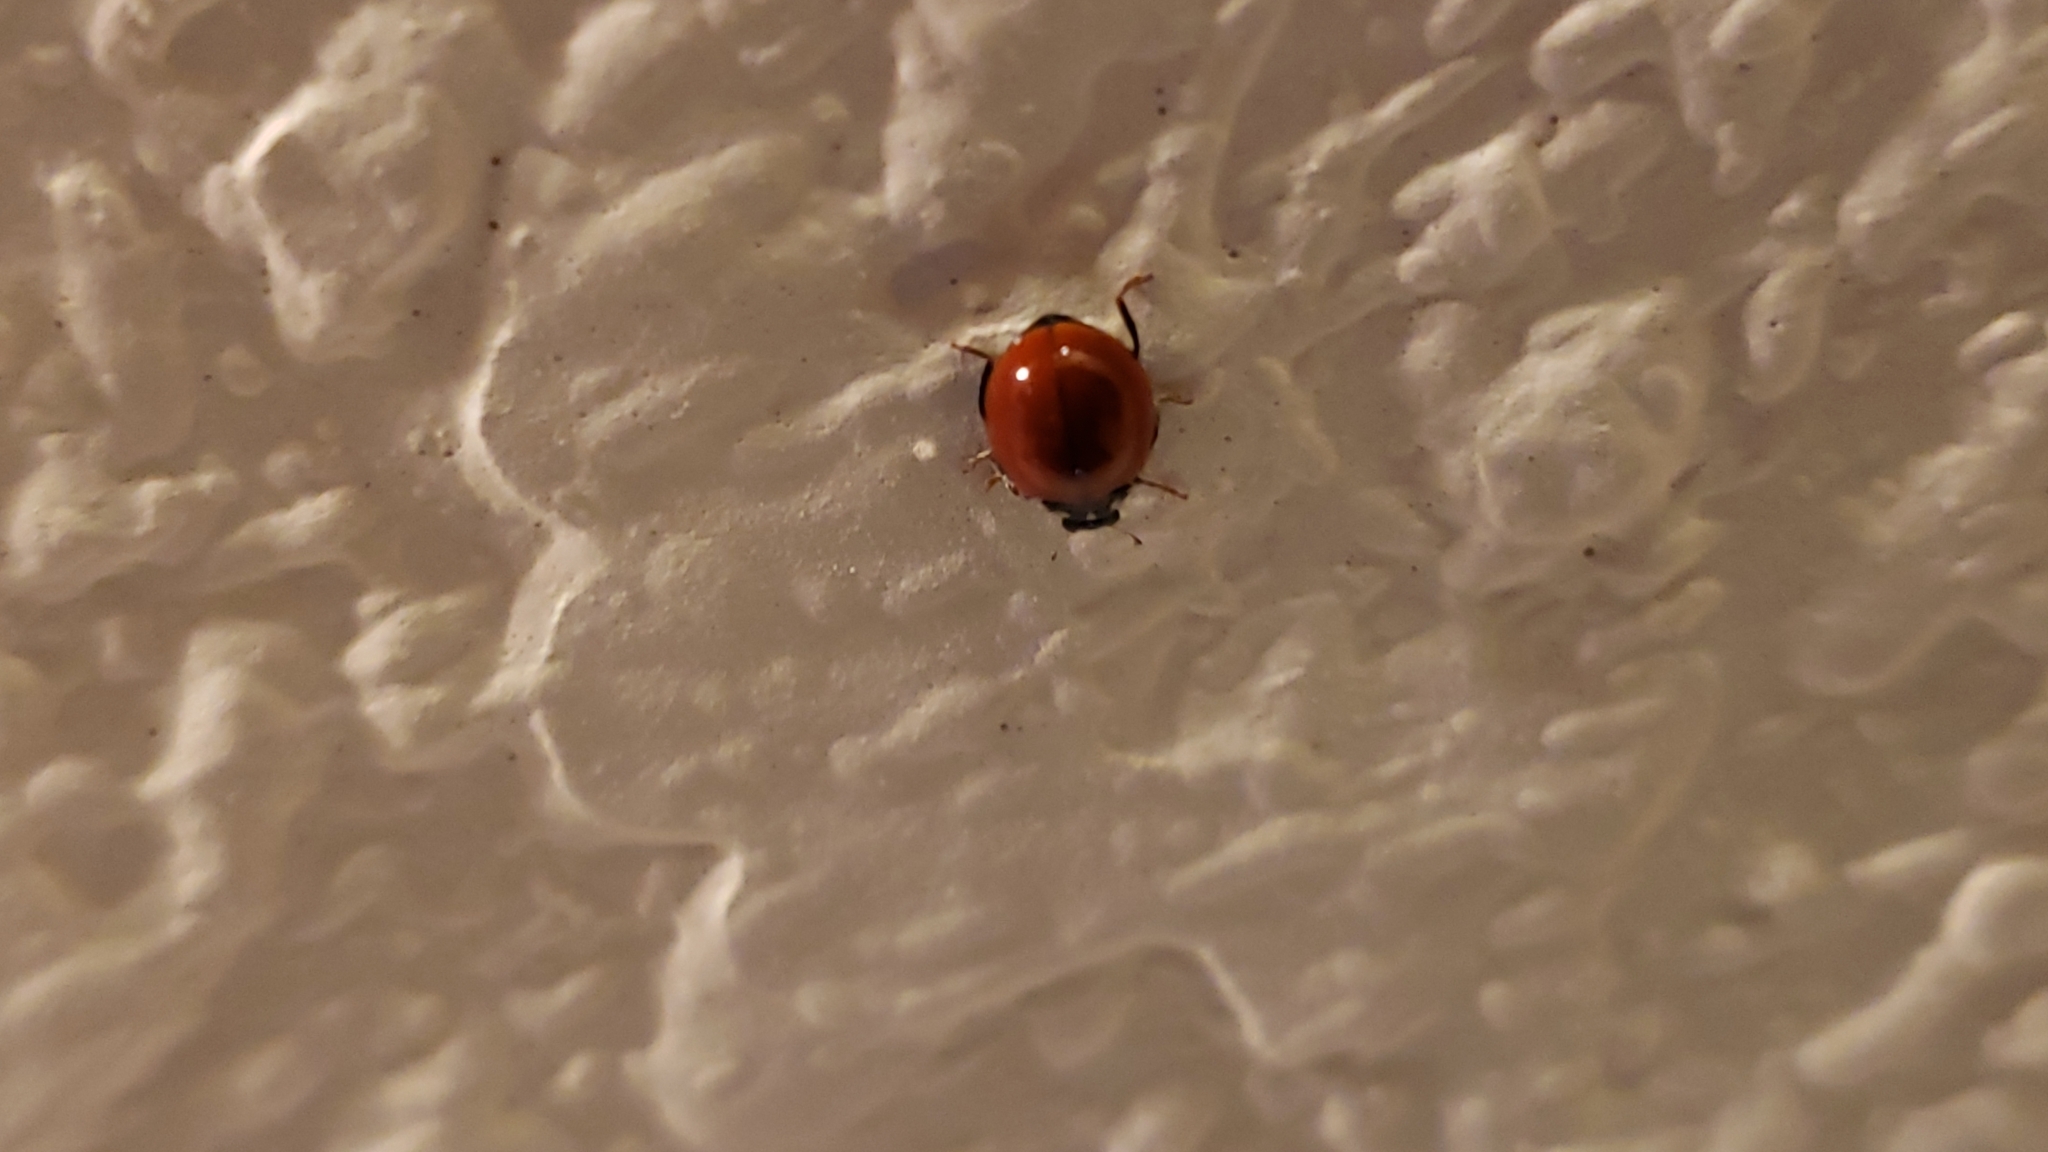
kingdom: Animalia
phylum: Arthropoda
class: Insecta
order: Coleoptera
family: Coccinellidae
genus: Cycloneda
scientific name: Cycloneda polita
